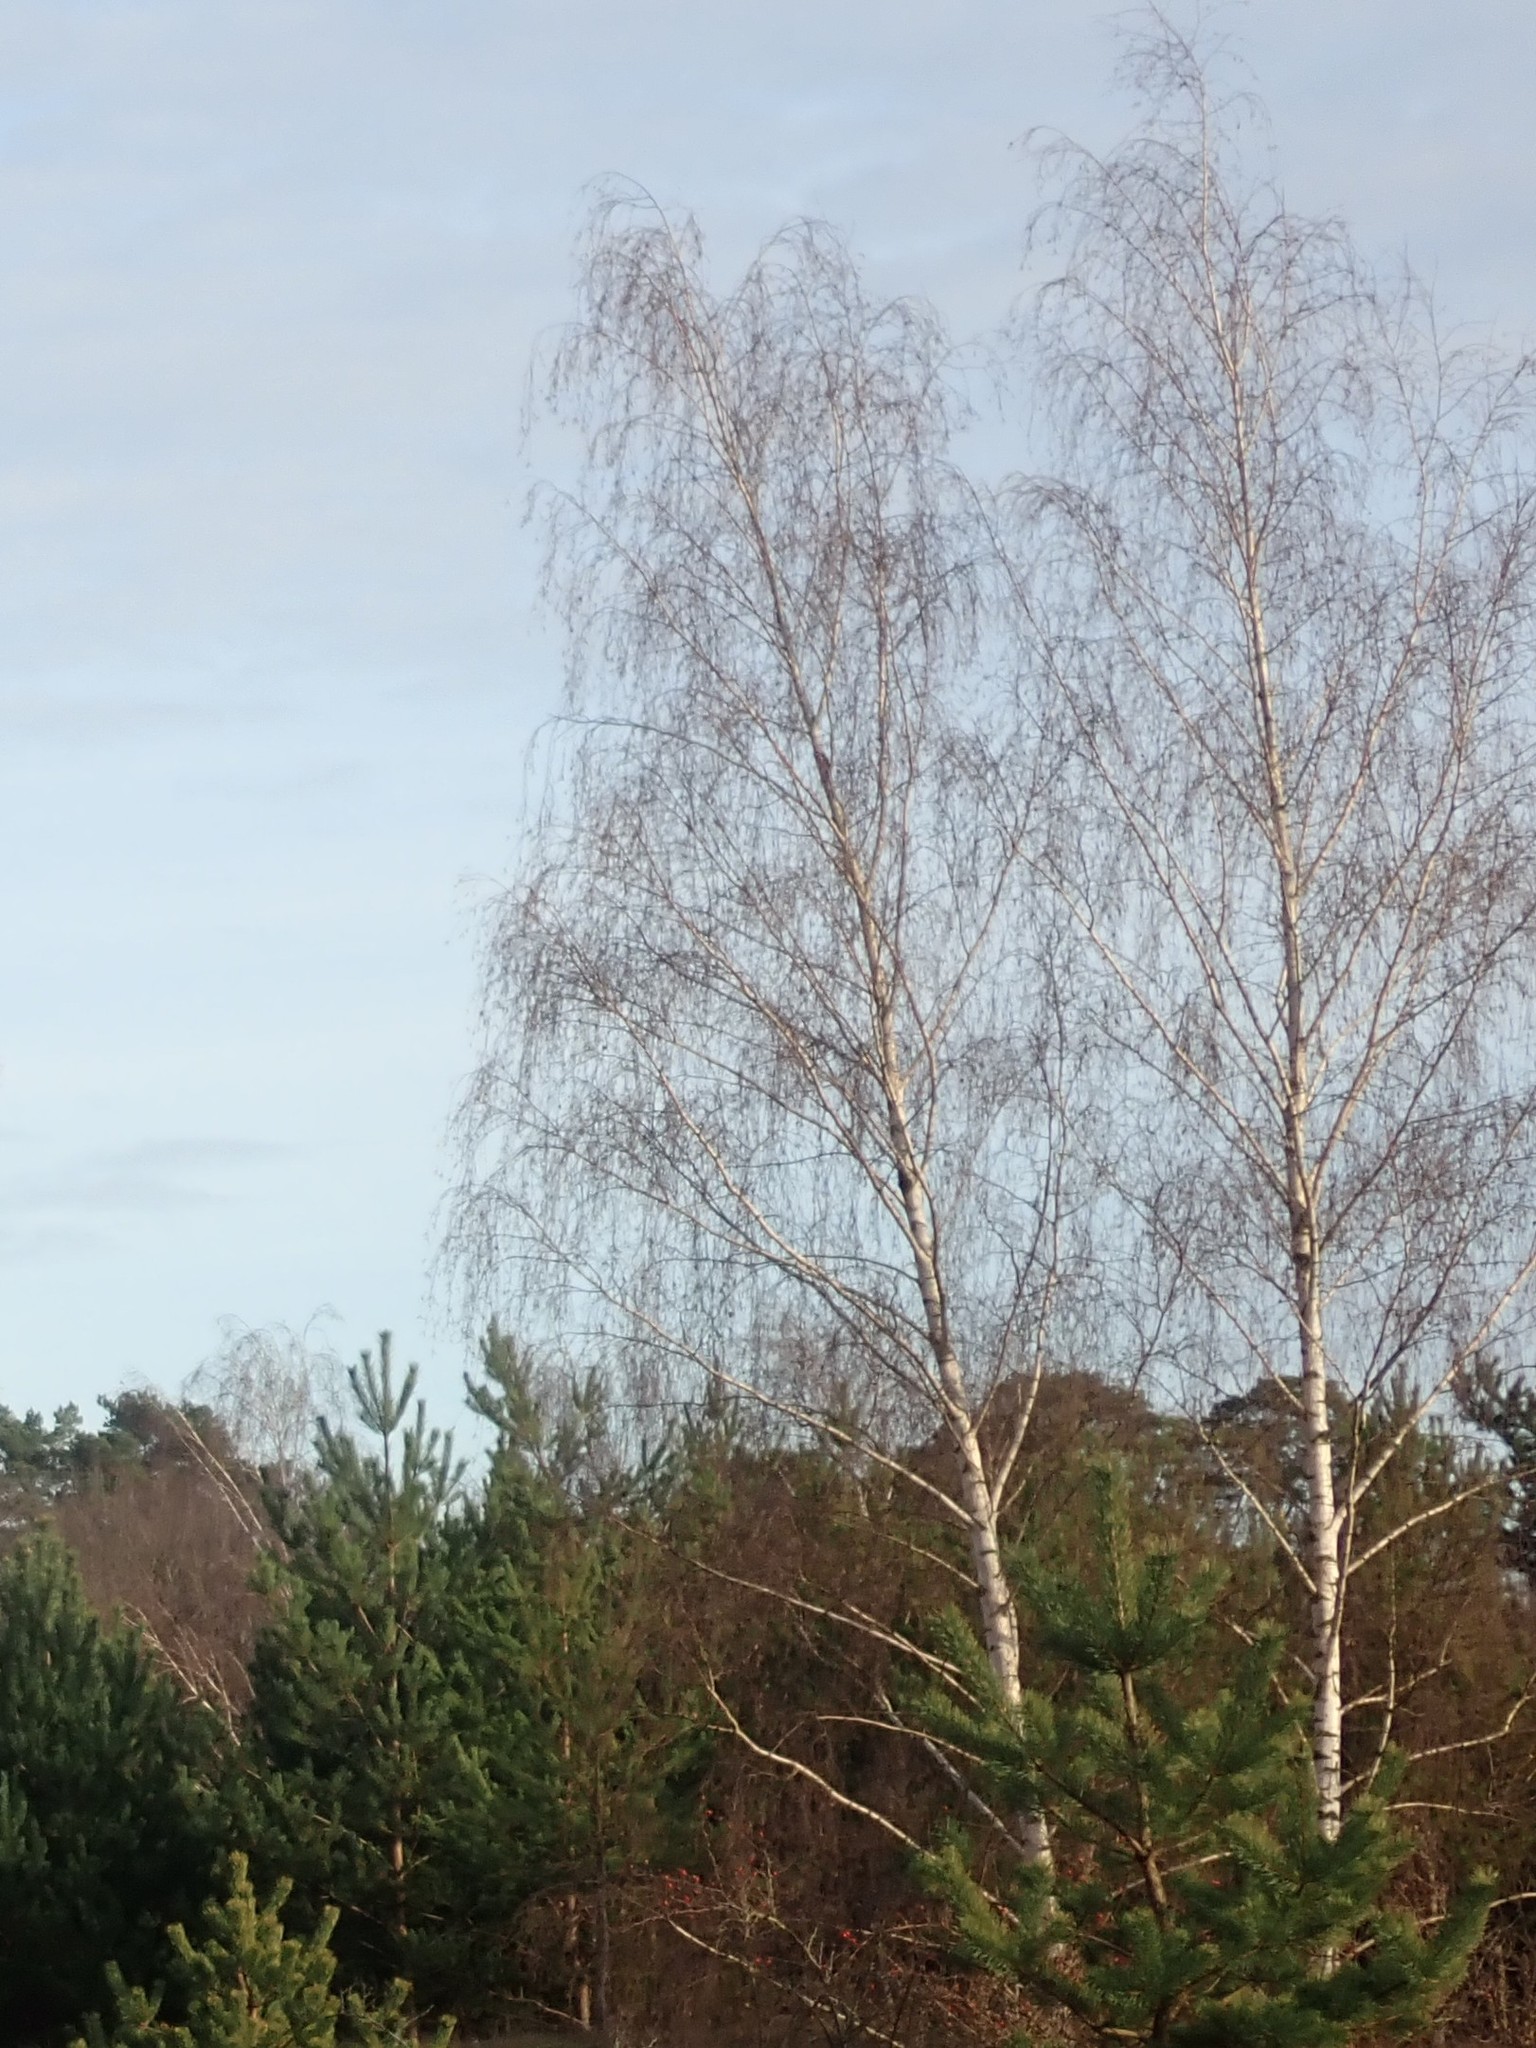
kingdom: Plantae
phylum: Tracheophyta
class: Magnoliopsida
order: Fagales
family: Betulaceae
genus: Betula
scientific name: Betula pendula
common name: Silver birch
